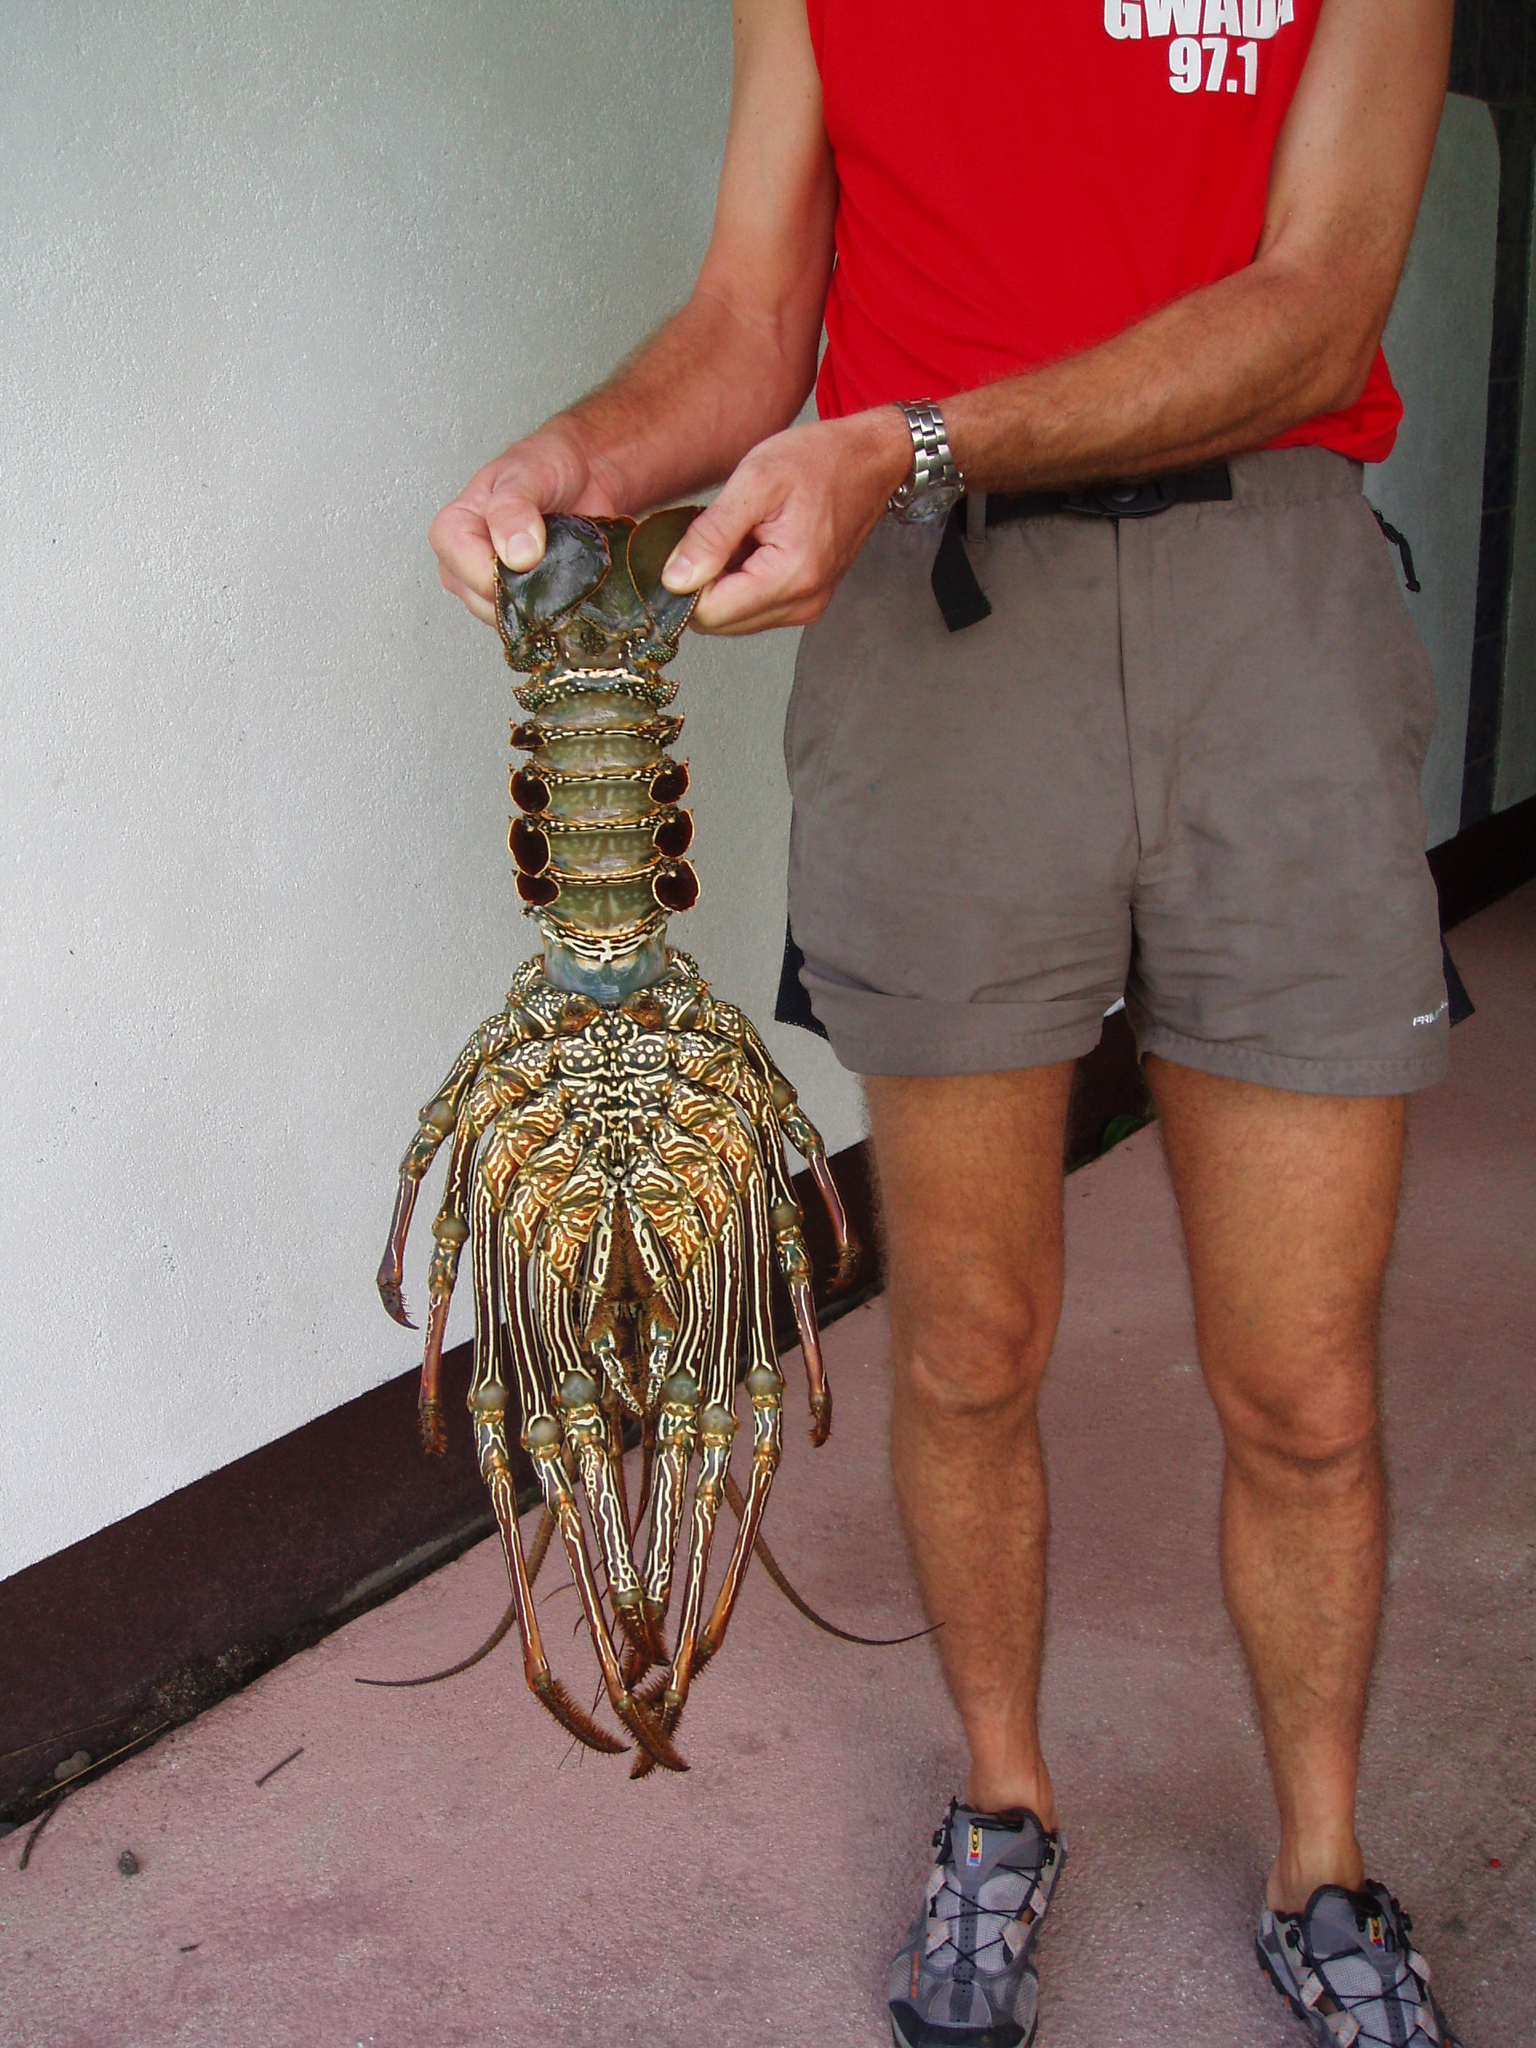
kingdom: Animalia
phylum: Arthropoda
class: Malacostraca
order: Decapoda
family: Palinuridae
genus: Panulirus
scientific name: Panulirus penicillatus
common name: Pronghorn spiny lobster
